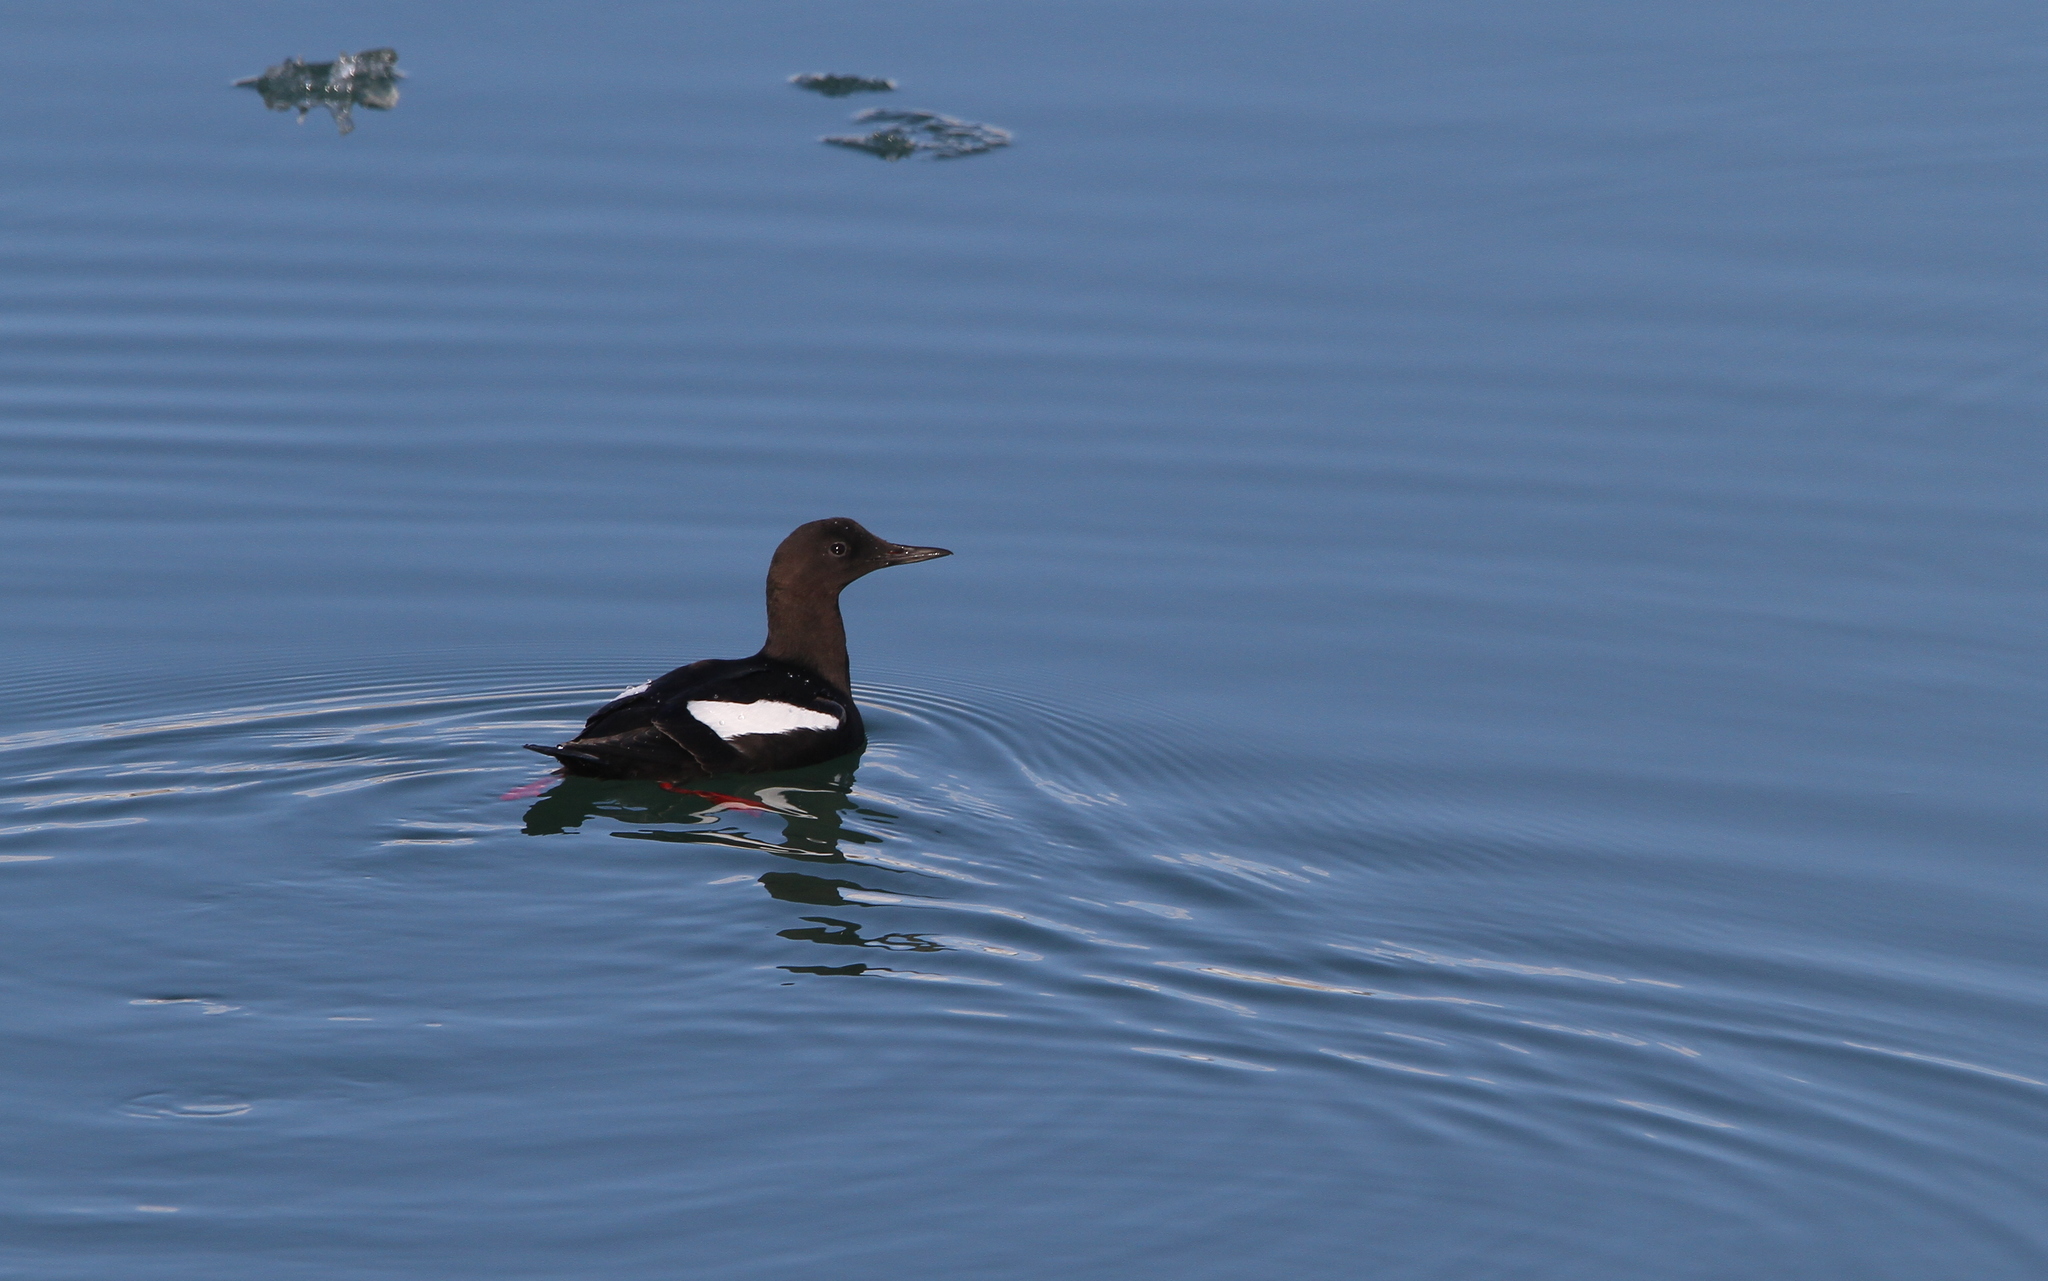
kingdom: Animalia
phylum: Chordata
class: Aves
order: Charadriiformes
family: Alcidae
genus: Cepphus
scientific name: Cepphus grylle
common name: Black guillemot
